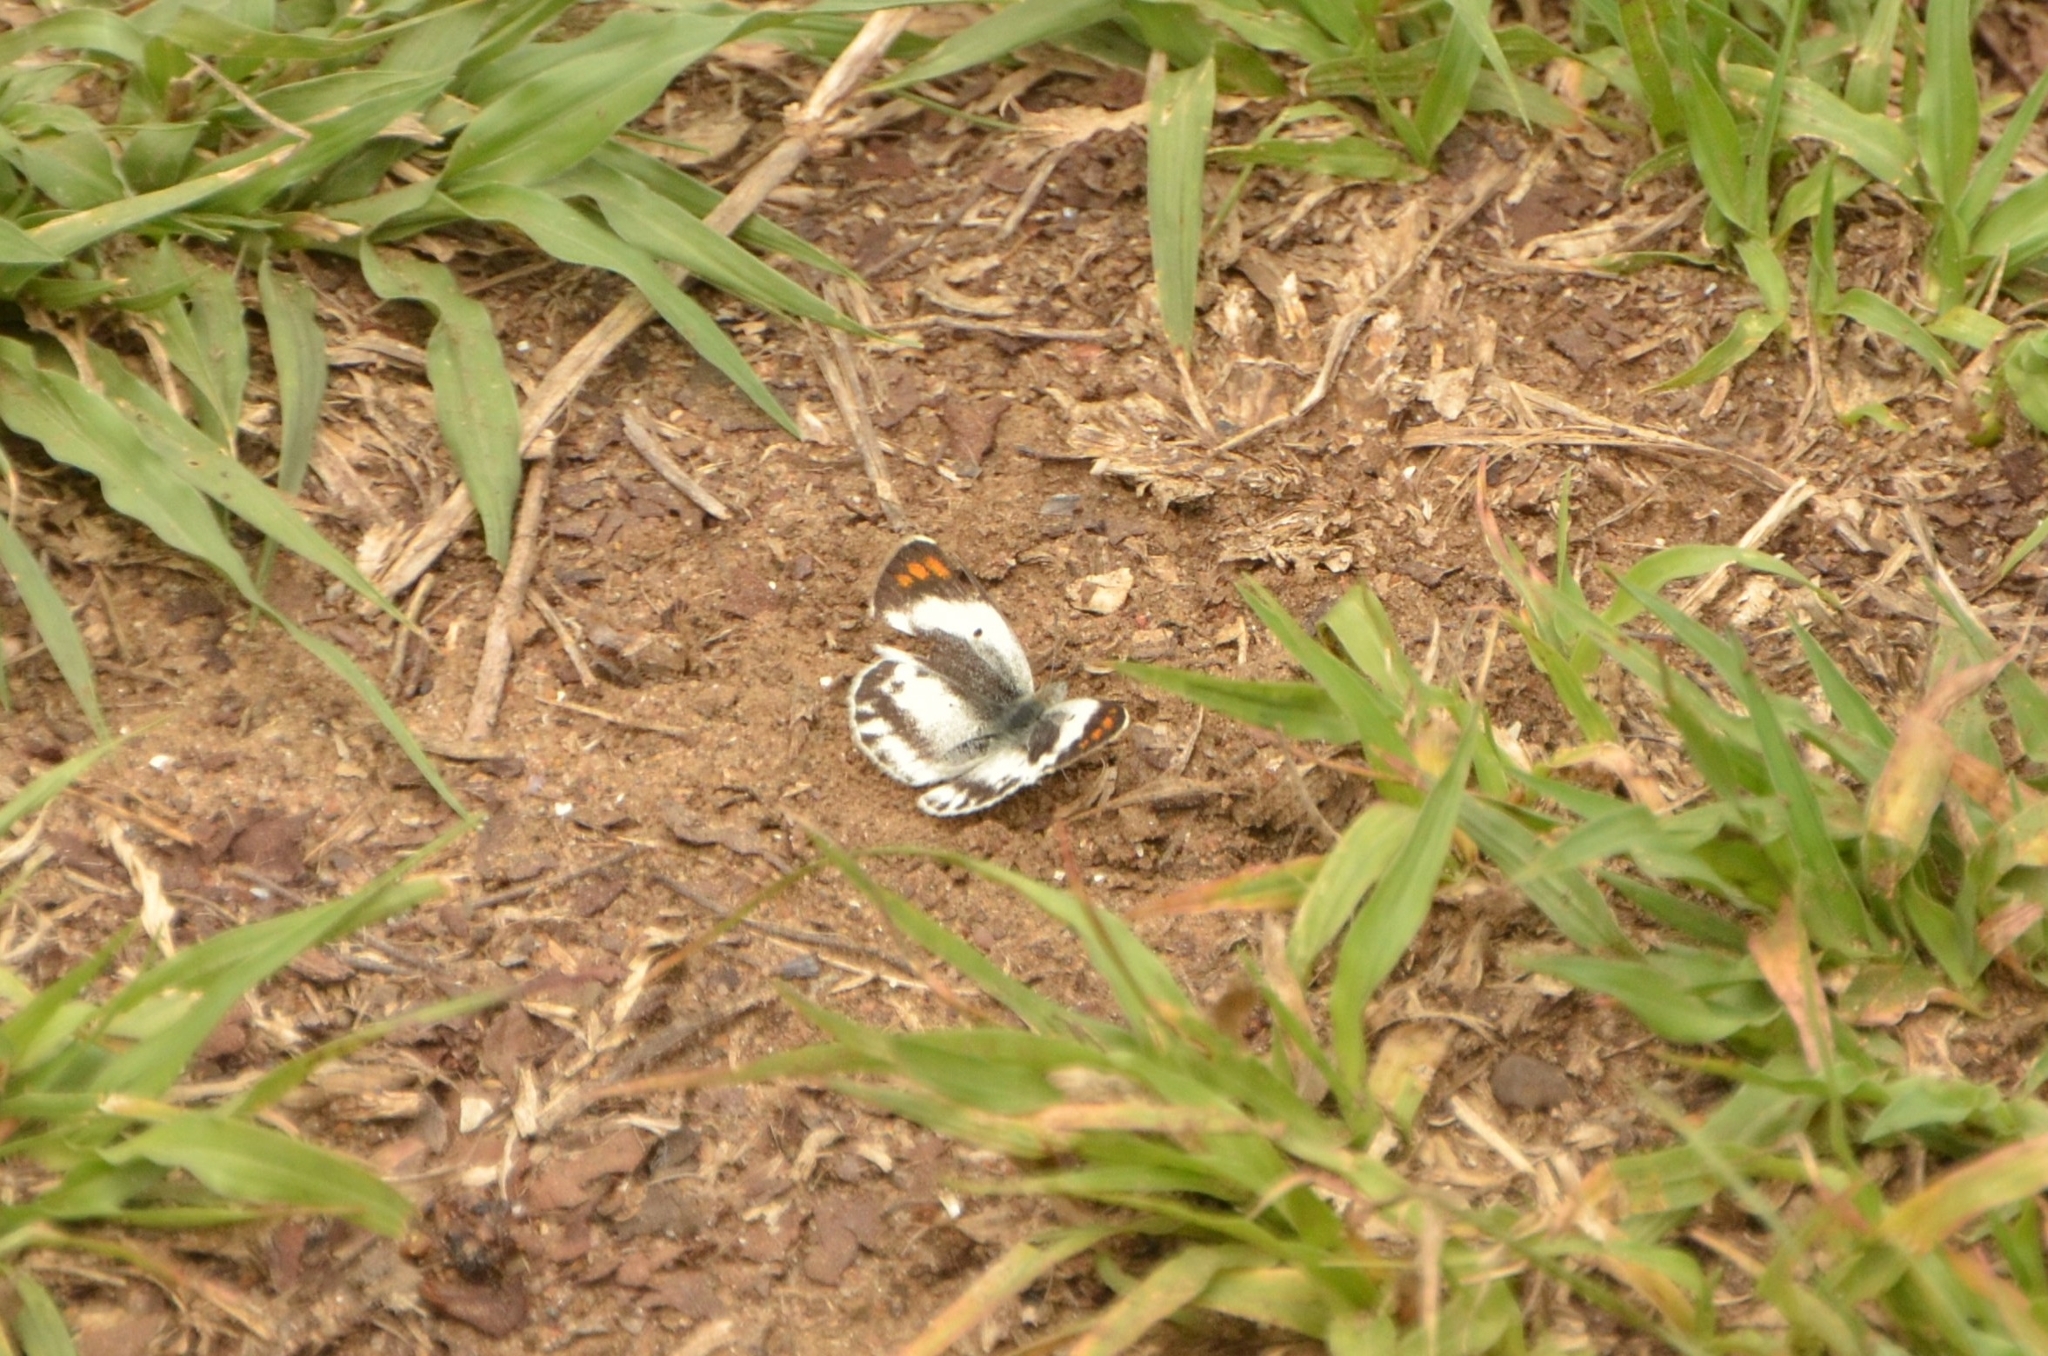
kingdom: Animalia
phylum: Arthropoda
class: Insecta
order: Lepidoptera
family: Pieridae
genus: Colotis
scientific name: Colotis euippe
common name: Round-winged orange tip
